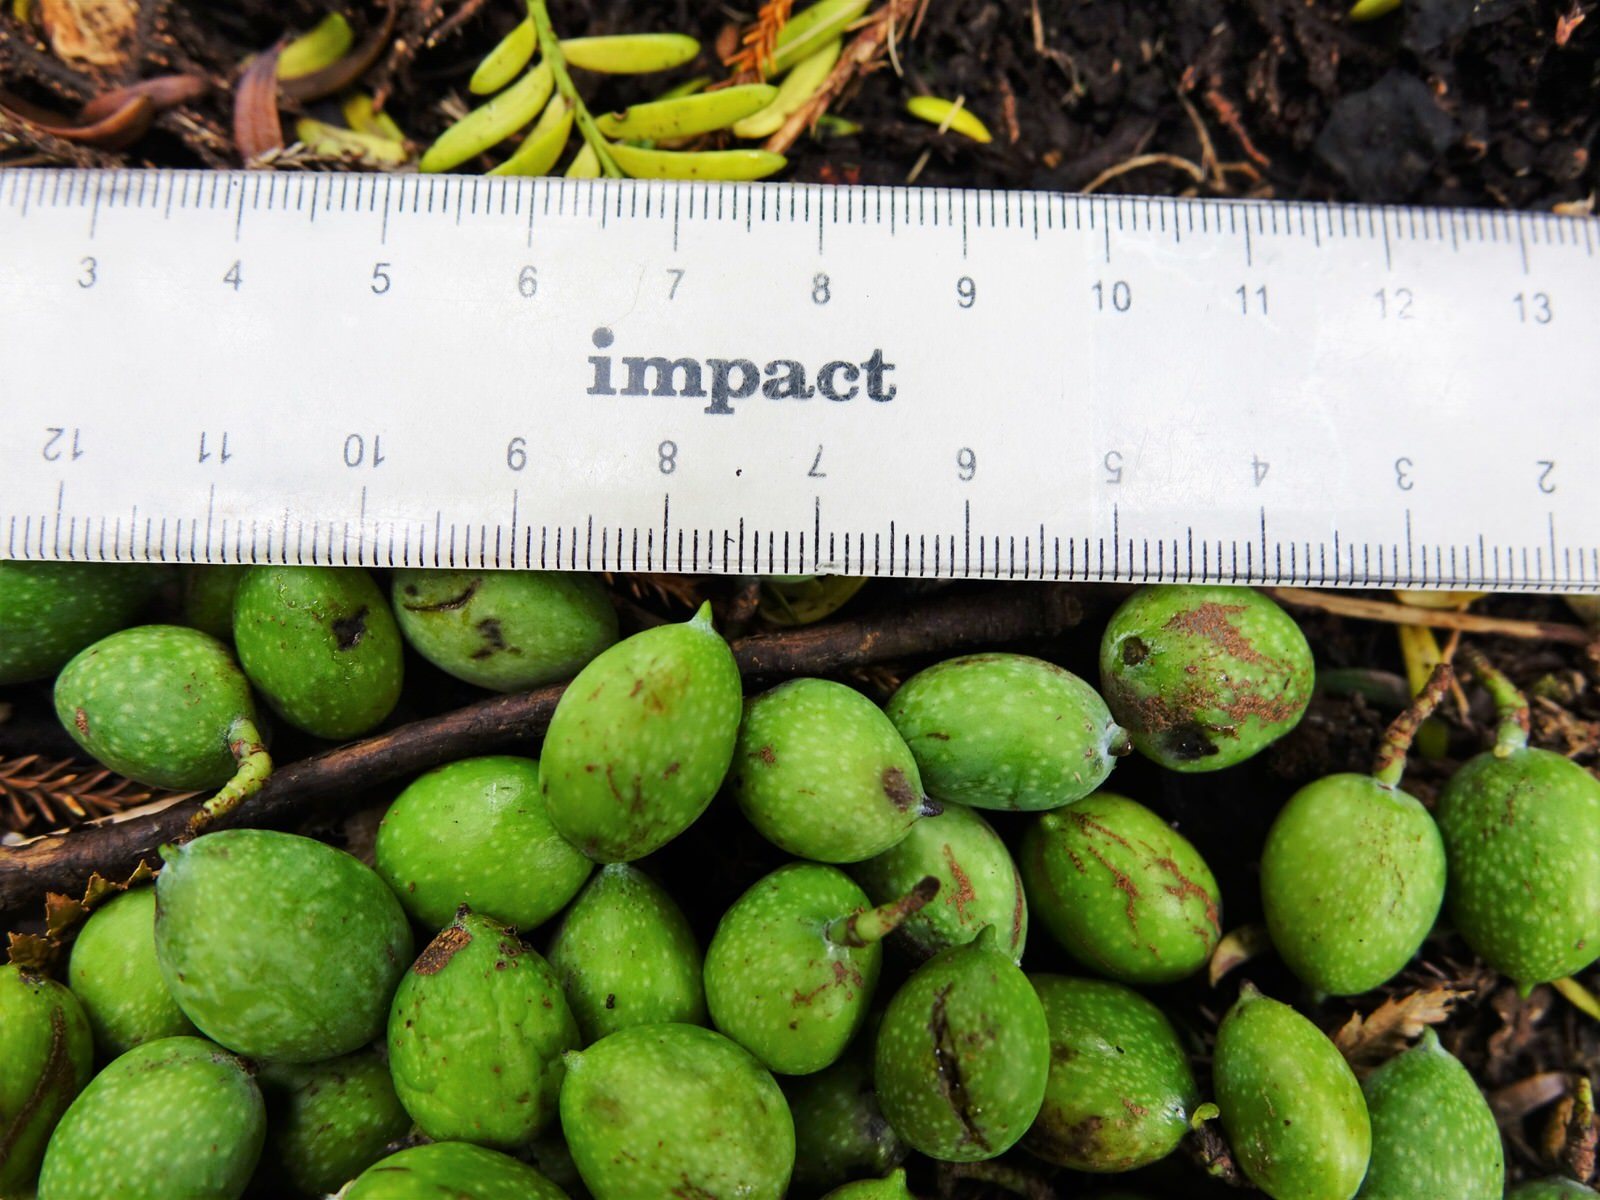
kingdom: Plantae
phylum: Tracheophyta
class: Pinopsida
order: Pinales
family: Podocarpaceae
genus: Prumnopitys
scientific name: Prumnopitys ferruginea
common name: Brown pine
